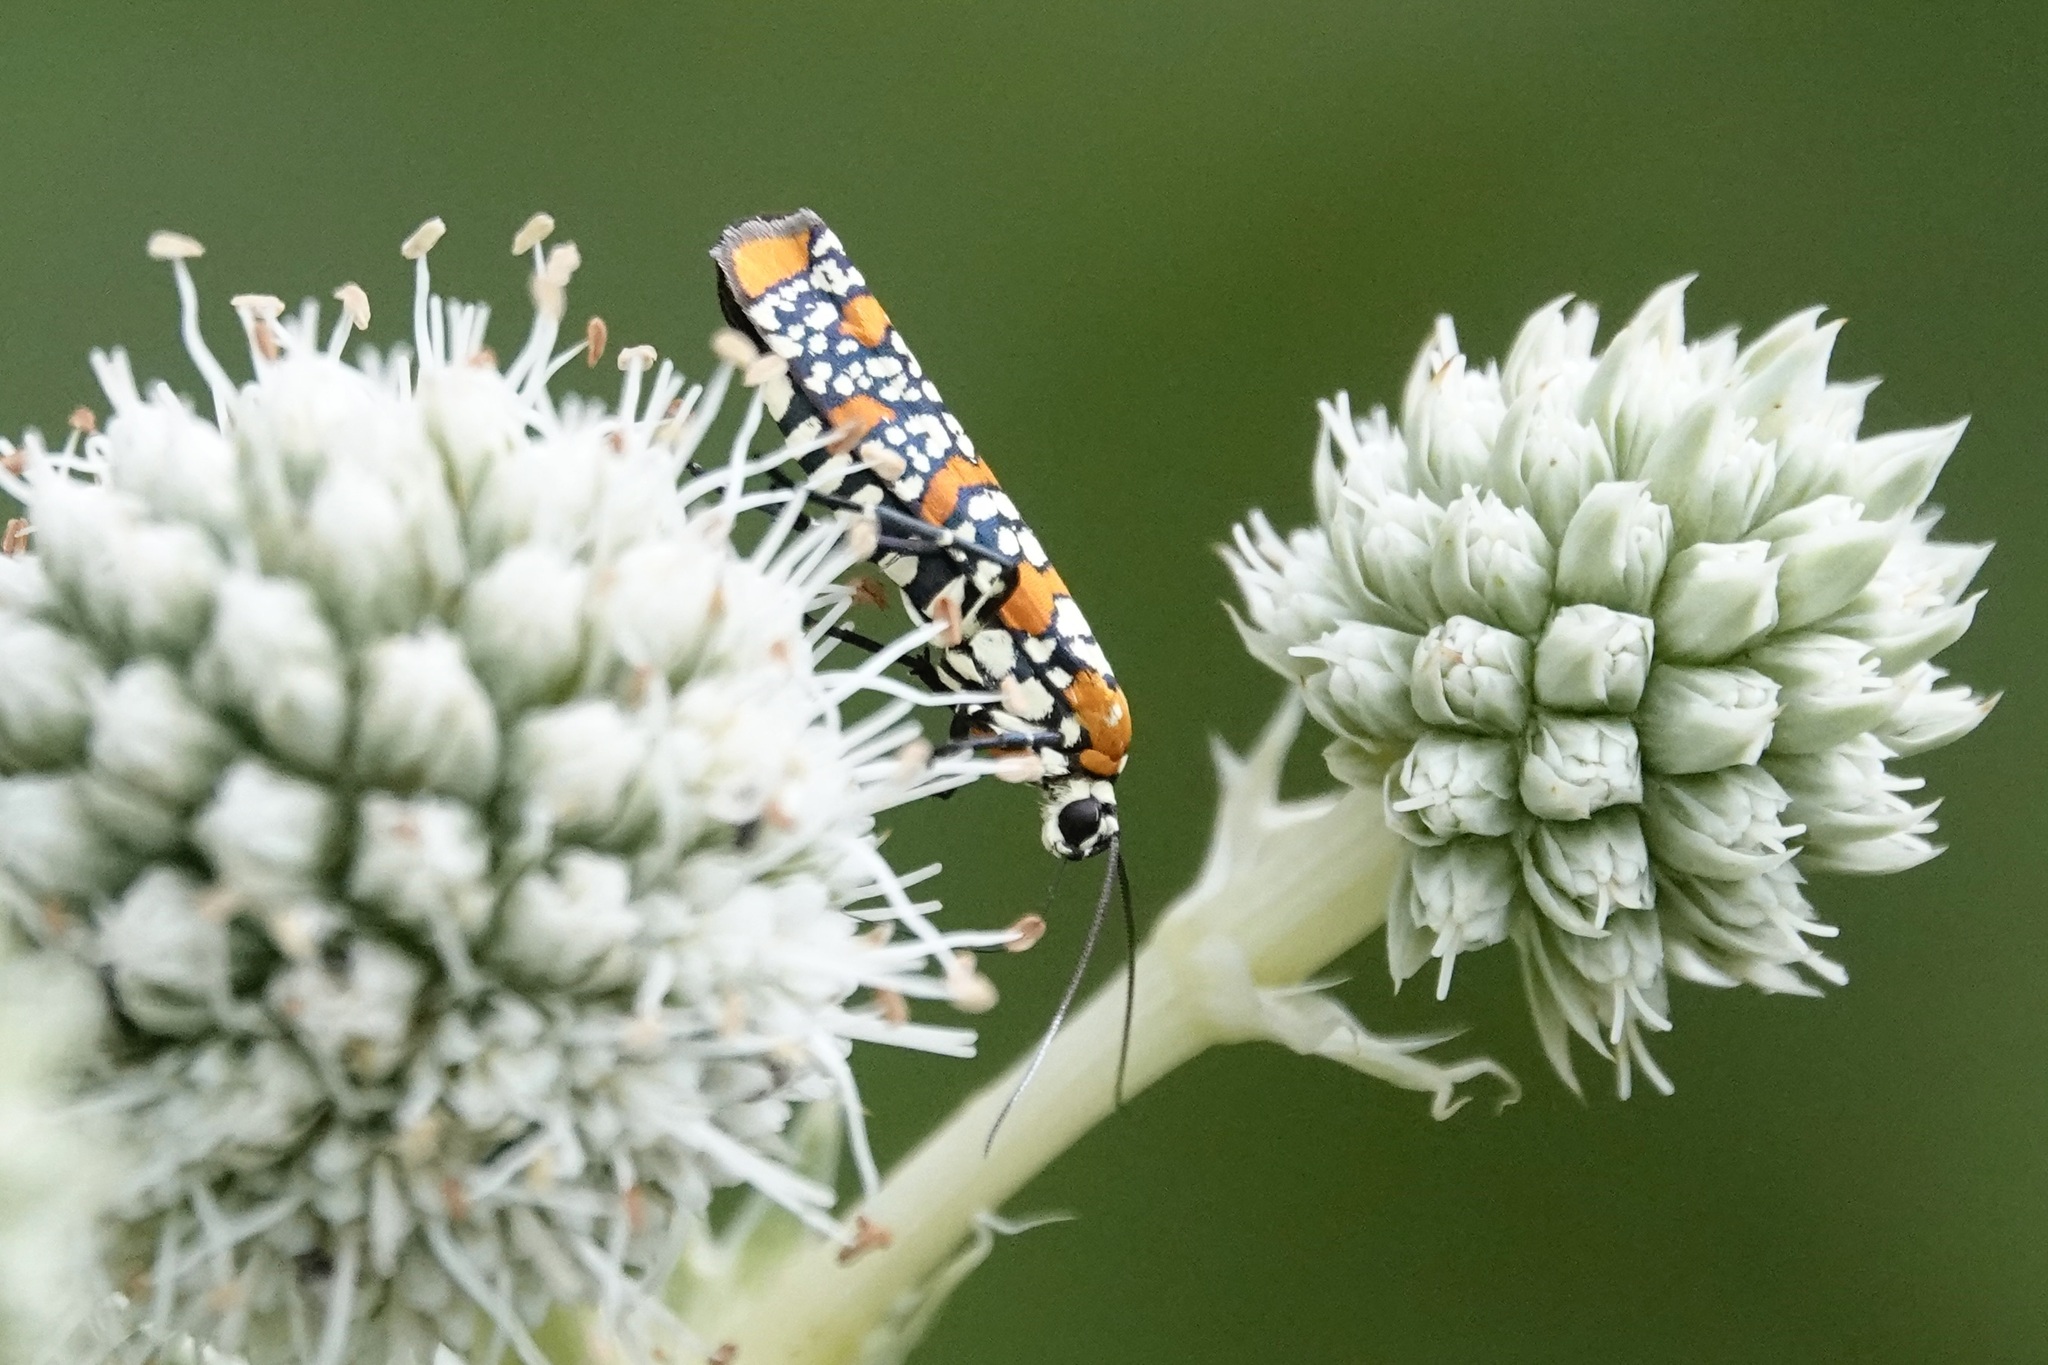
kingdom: Animalia
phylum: Arthropoda
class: Insecta
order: Lepidoptera
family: Attevidae
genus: Atteva
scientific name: Atteva punctella
